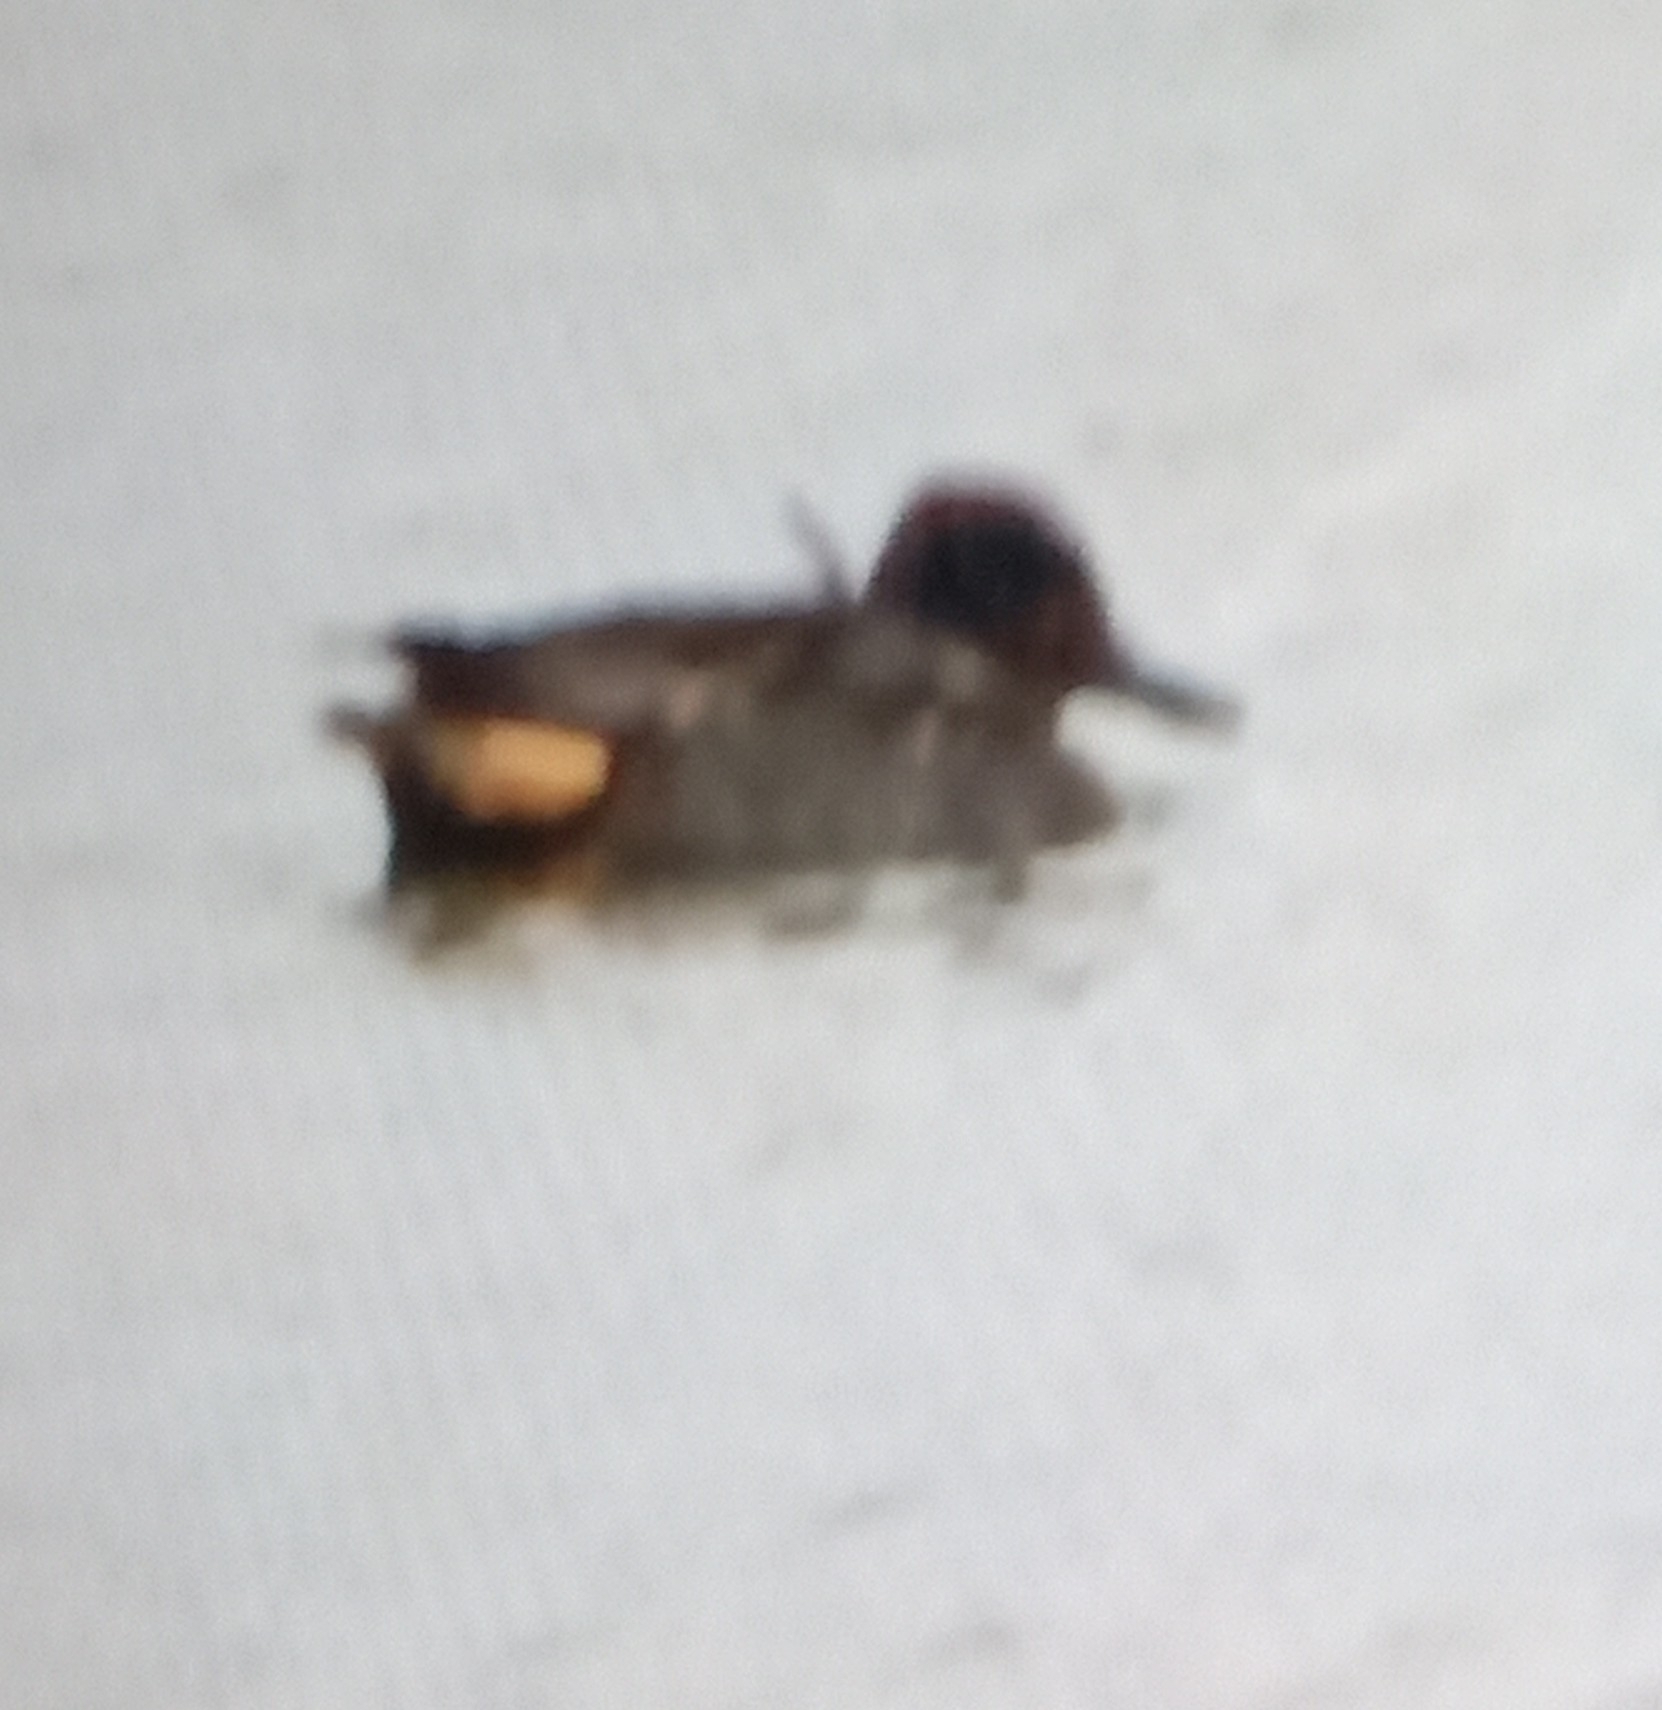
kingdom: Animalia
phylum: Chordata
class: Aves
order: Anseriformes
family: Anatidae
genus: Anas
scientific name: Anas crecca
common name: Eurasian teal
